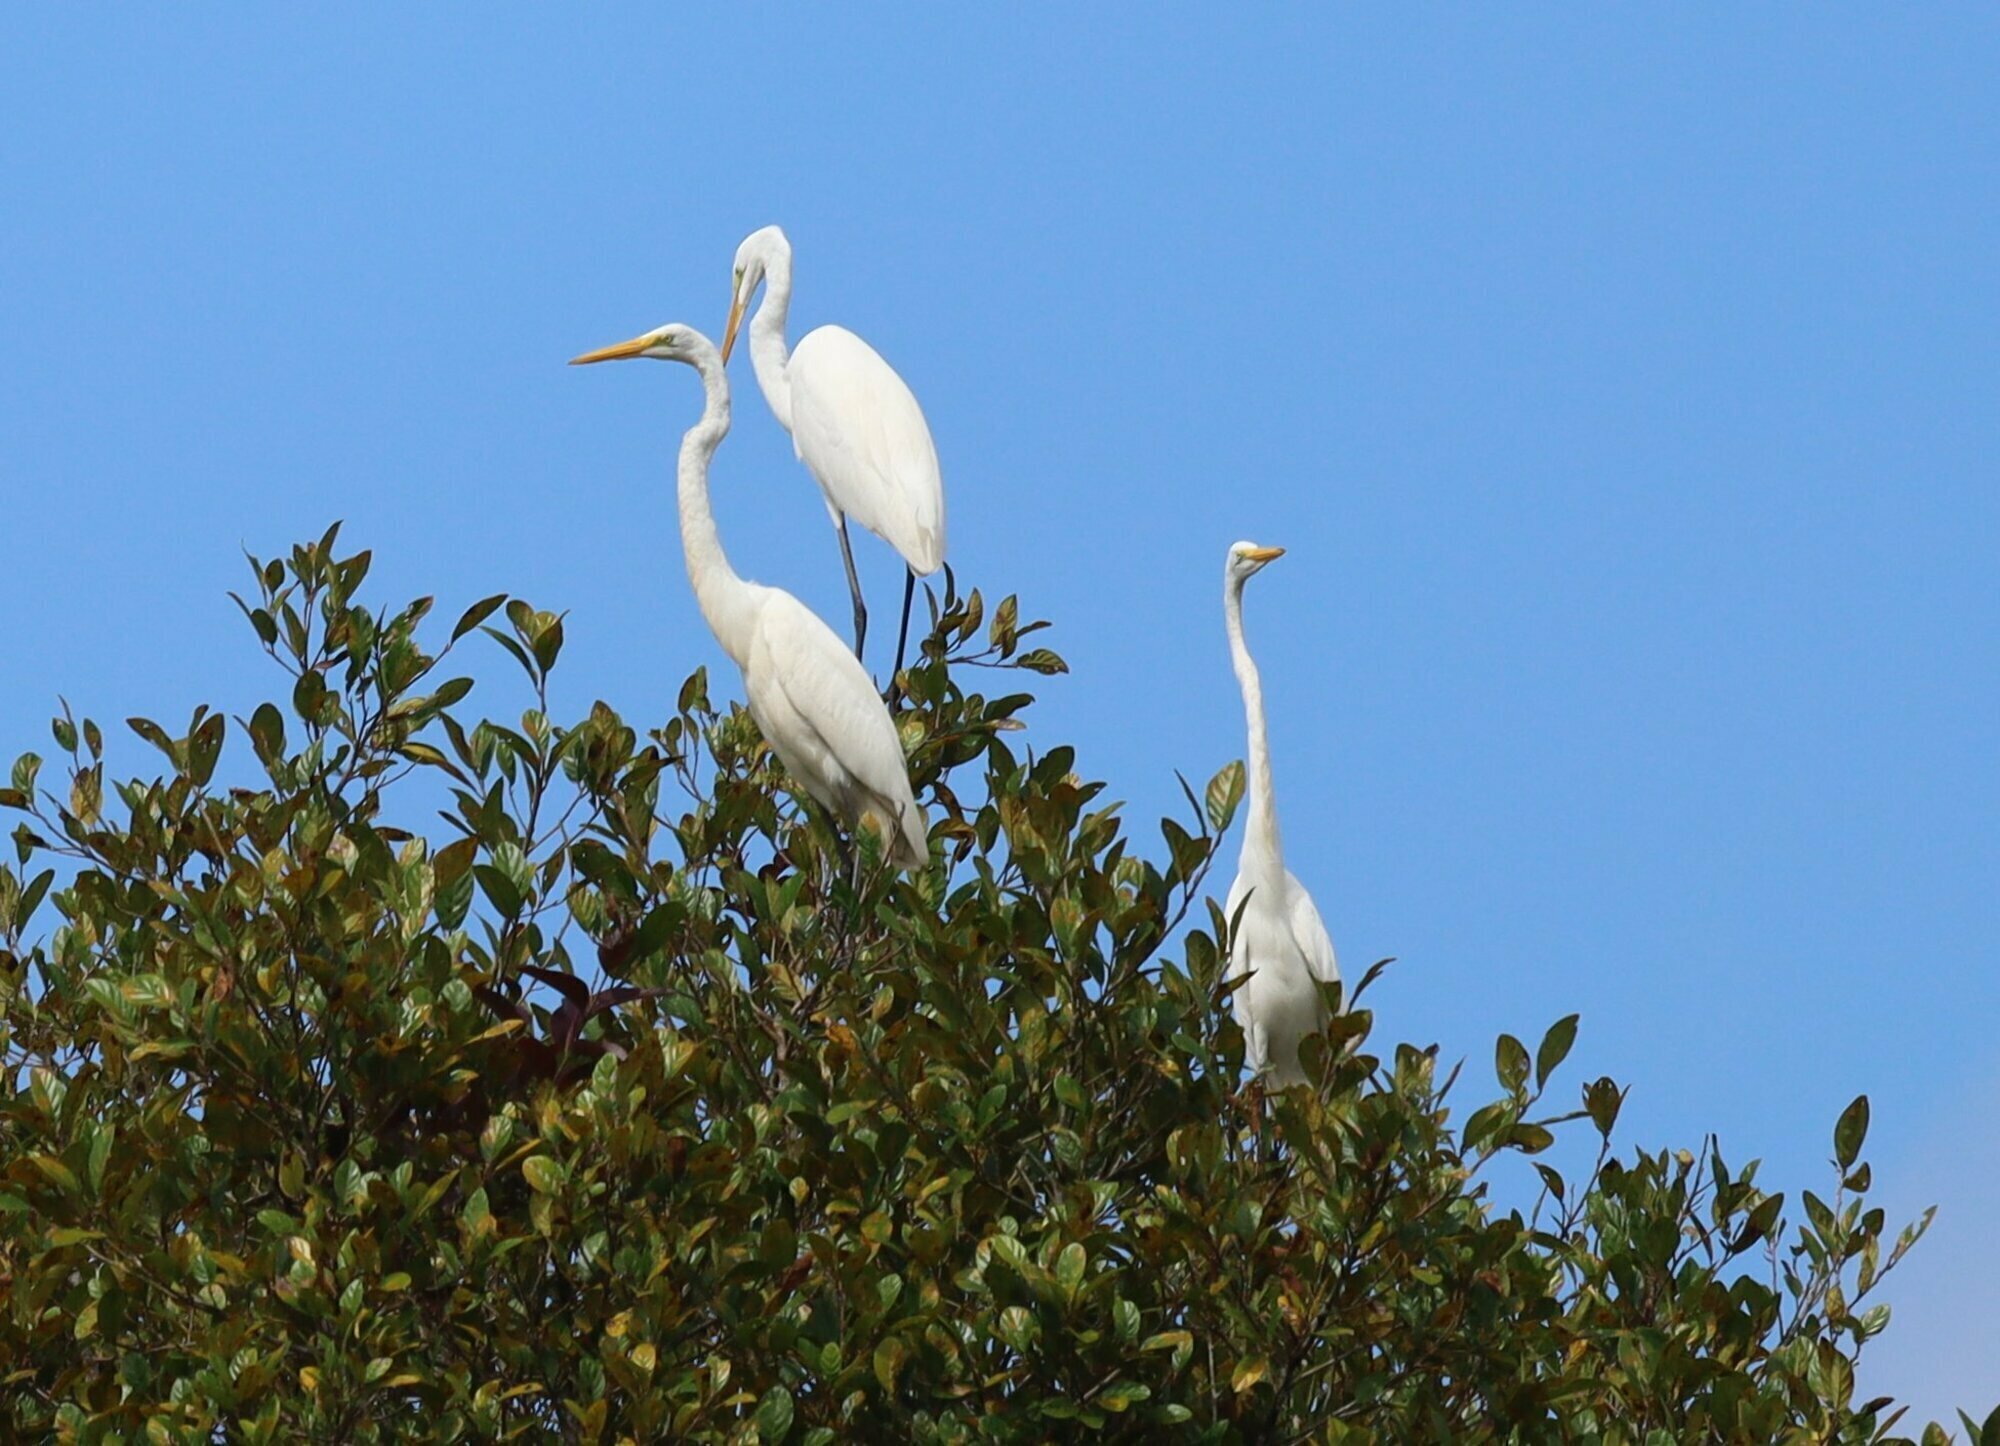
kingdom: Animalia
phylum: Chordata
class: Aves
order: Pelecaniformes
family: Ardeidae
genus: Ardea
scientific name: Ardea alba
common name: Great egret
